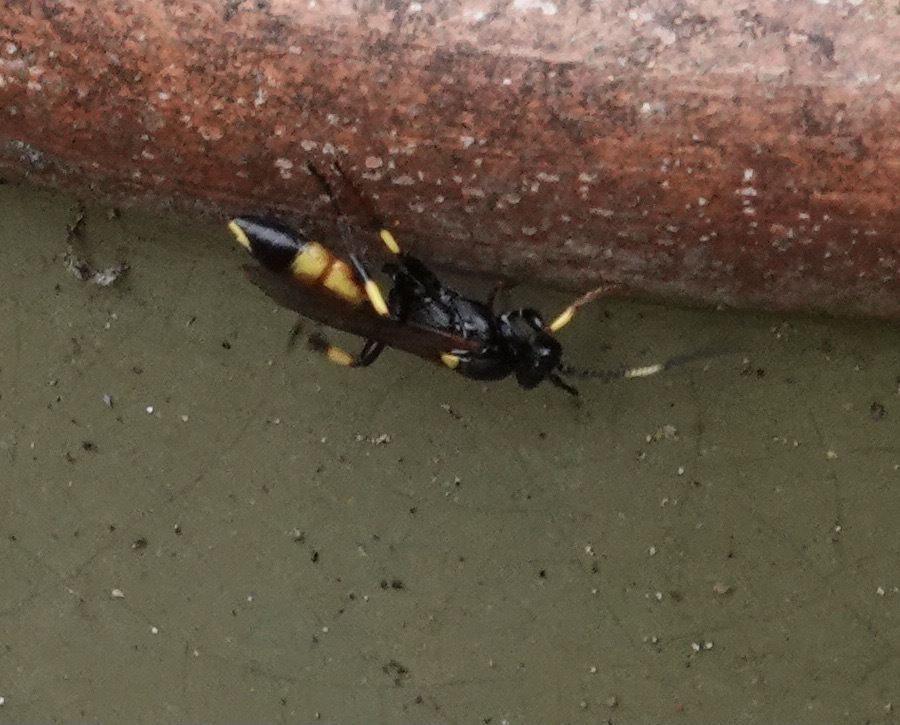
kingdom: Animalia
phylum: Arthropoda
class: Insecta
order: Hymenoptera
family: Ichneumonidae
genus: Ichneumon
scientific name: Ichneumon stramentor
